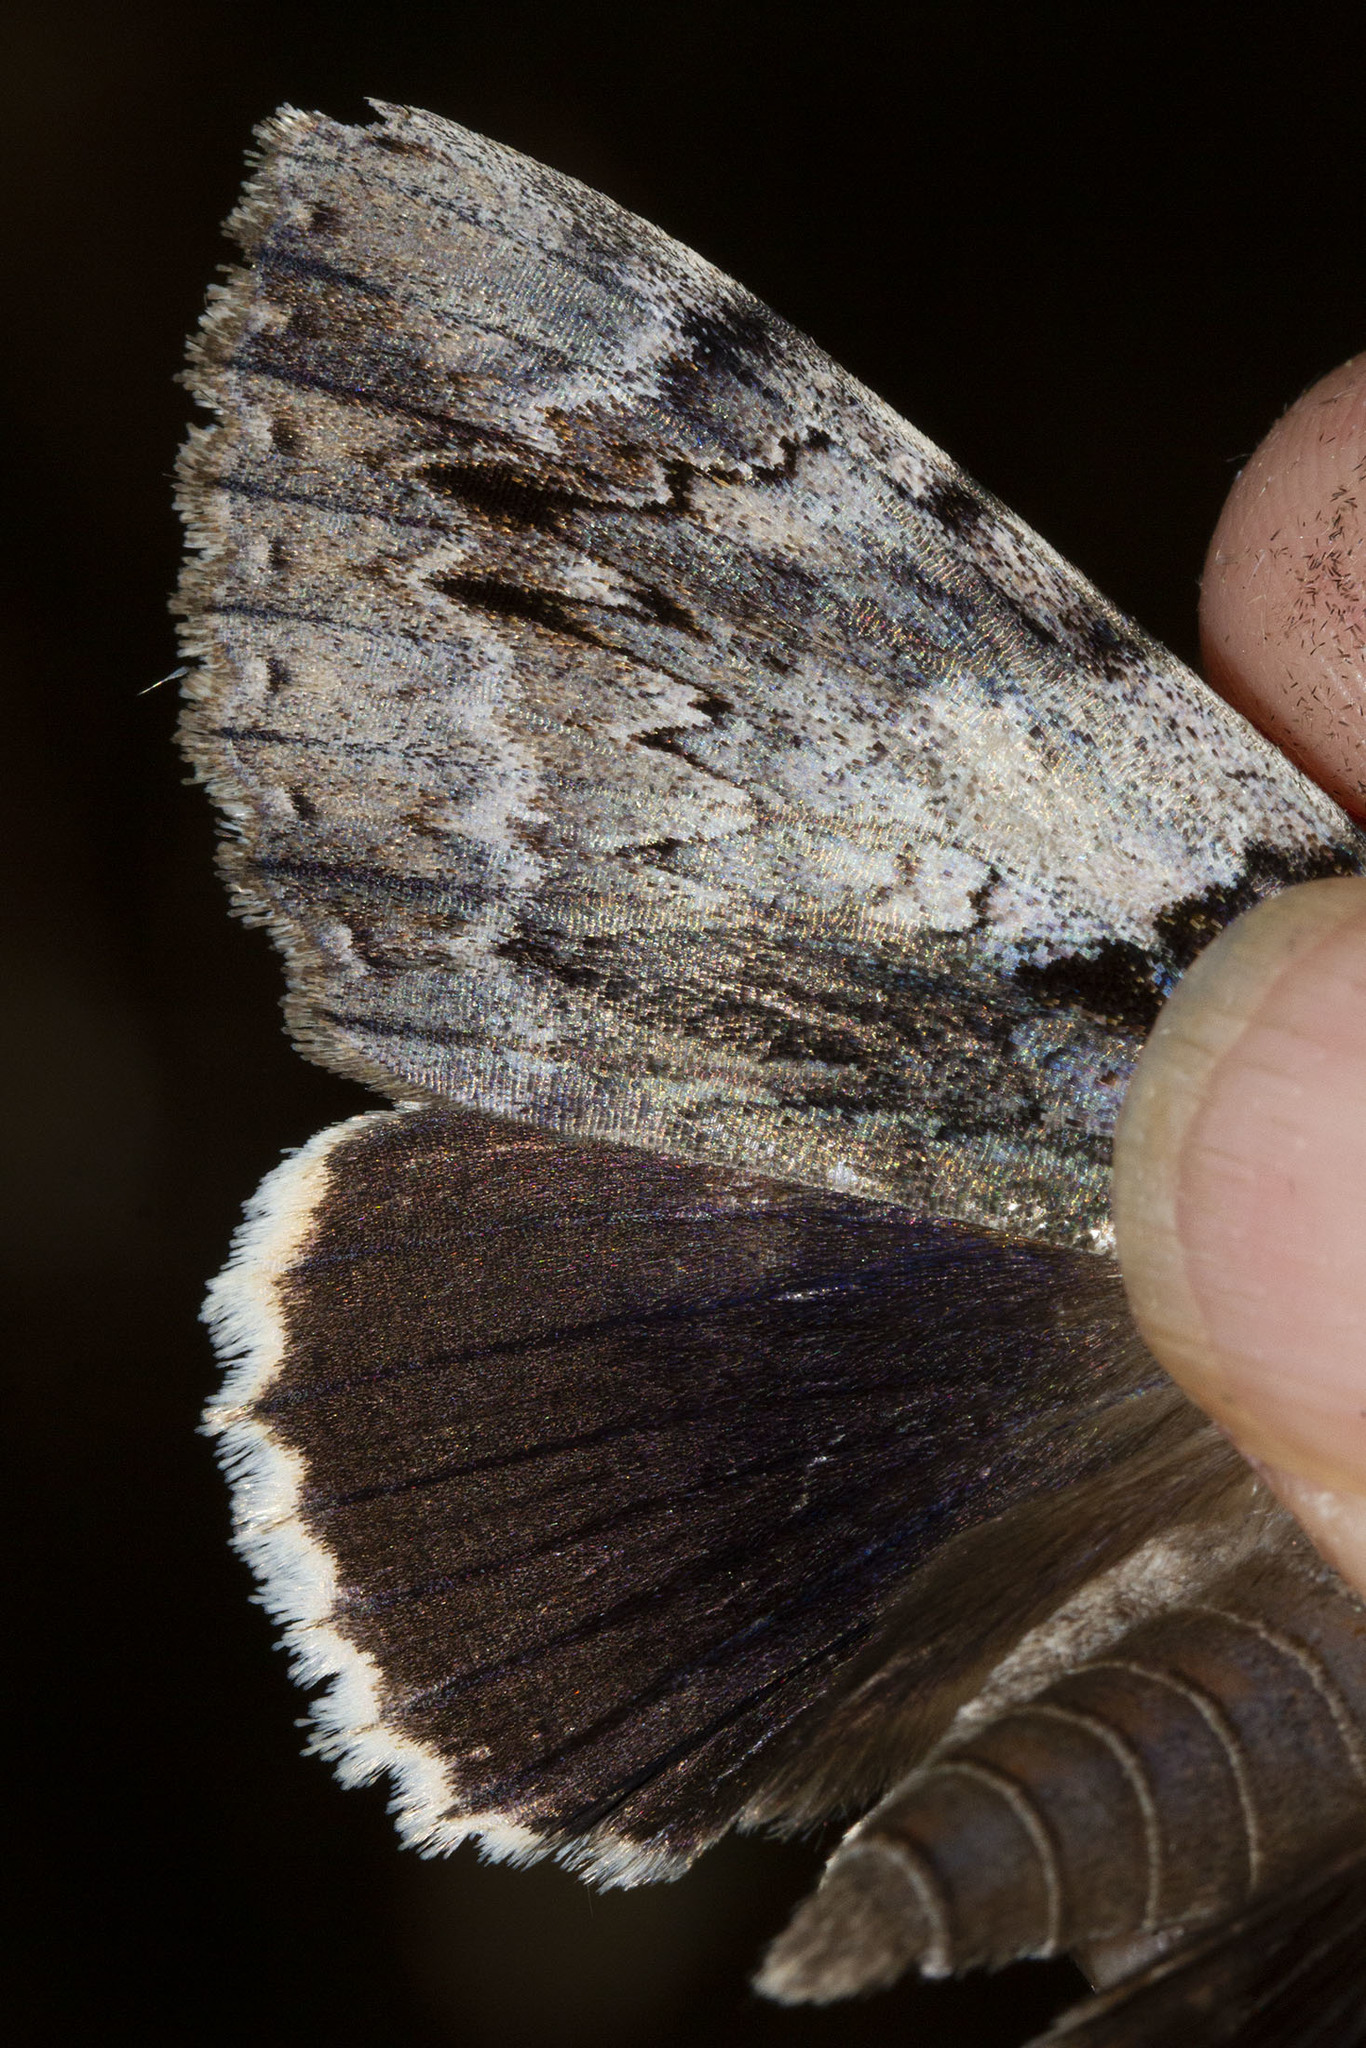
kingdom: Animalia
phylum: Arthropoda
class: Insecta
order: Lepidoptera
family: Erebidae
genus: Catocala
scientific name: Catocala vidua
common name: The widow
